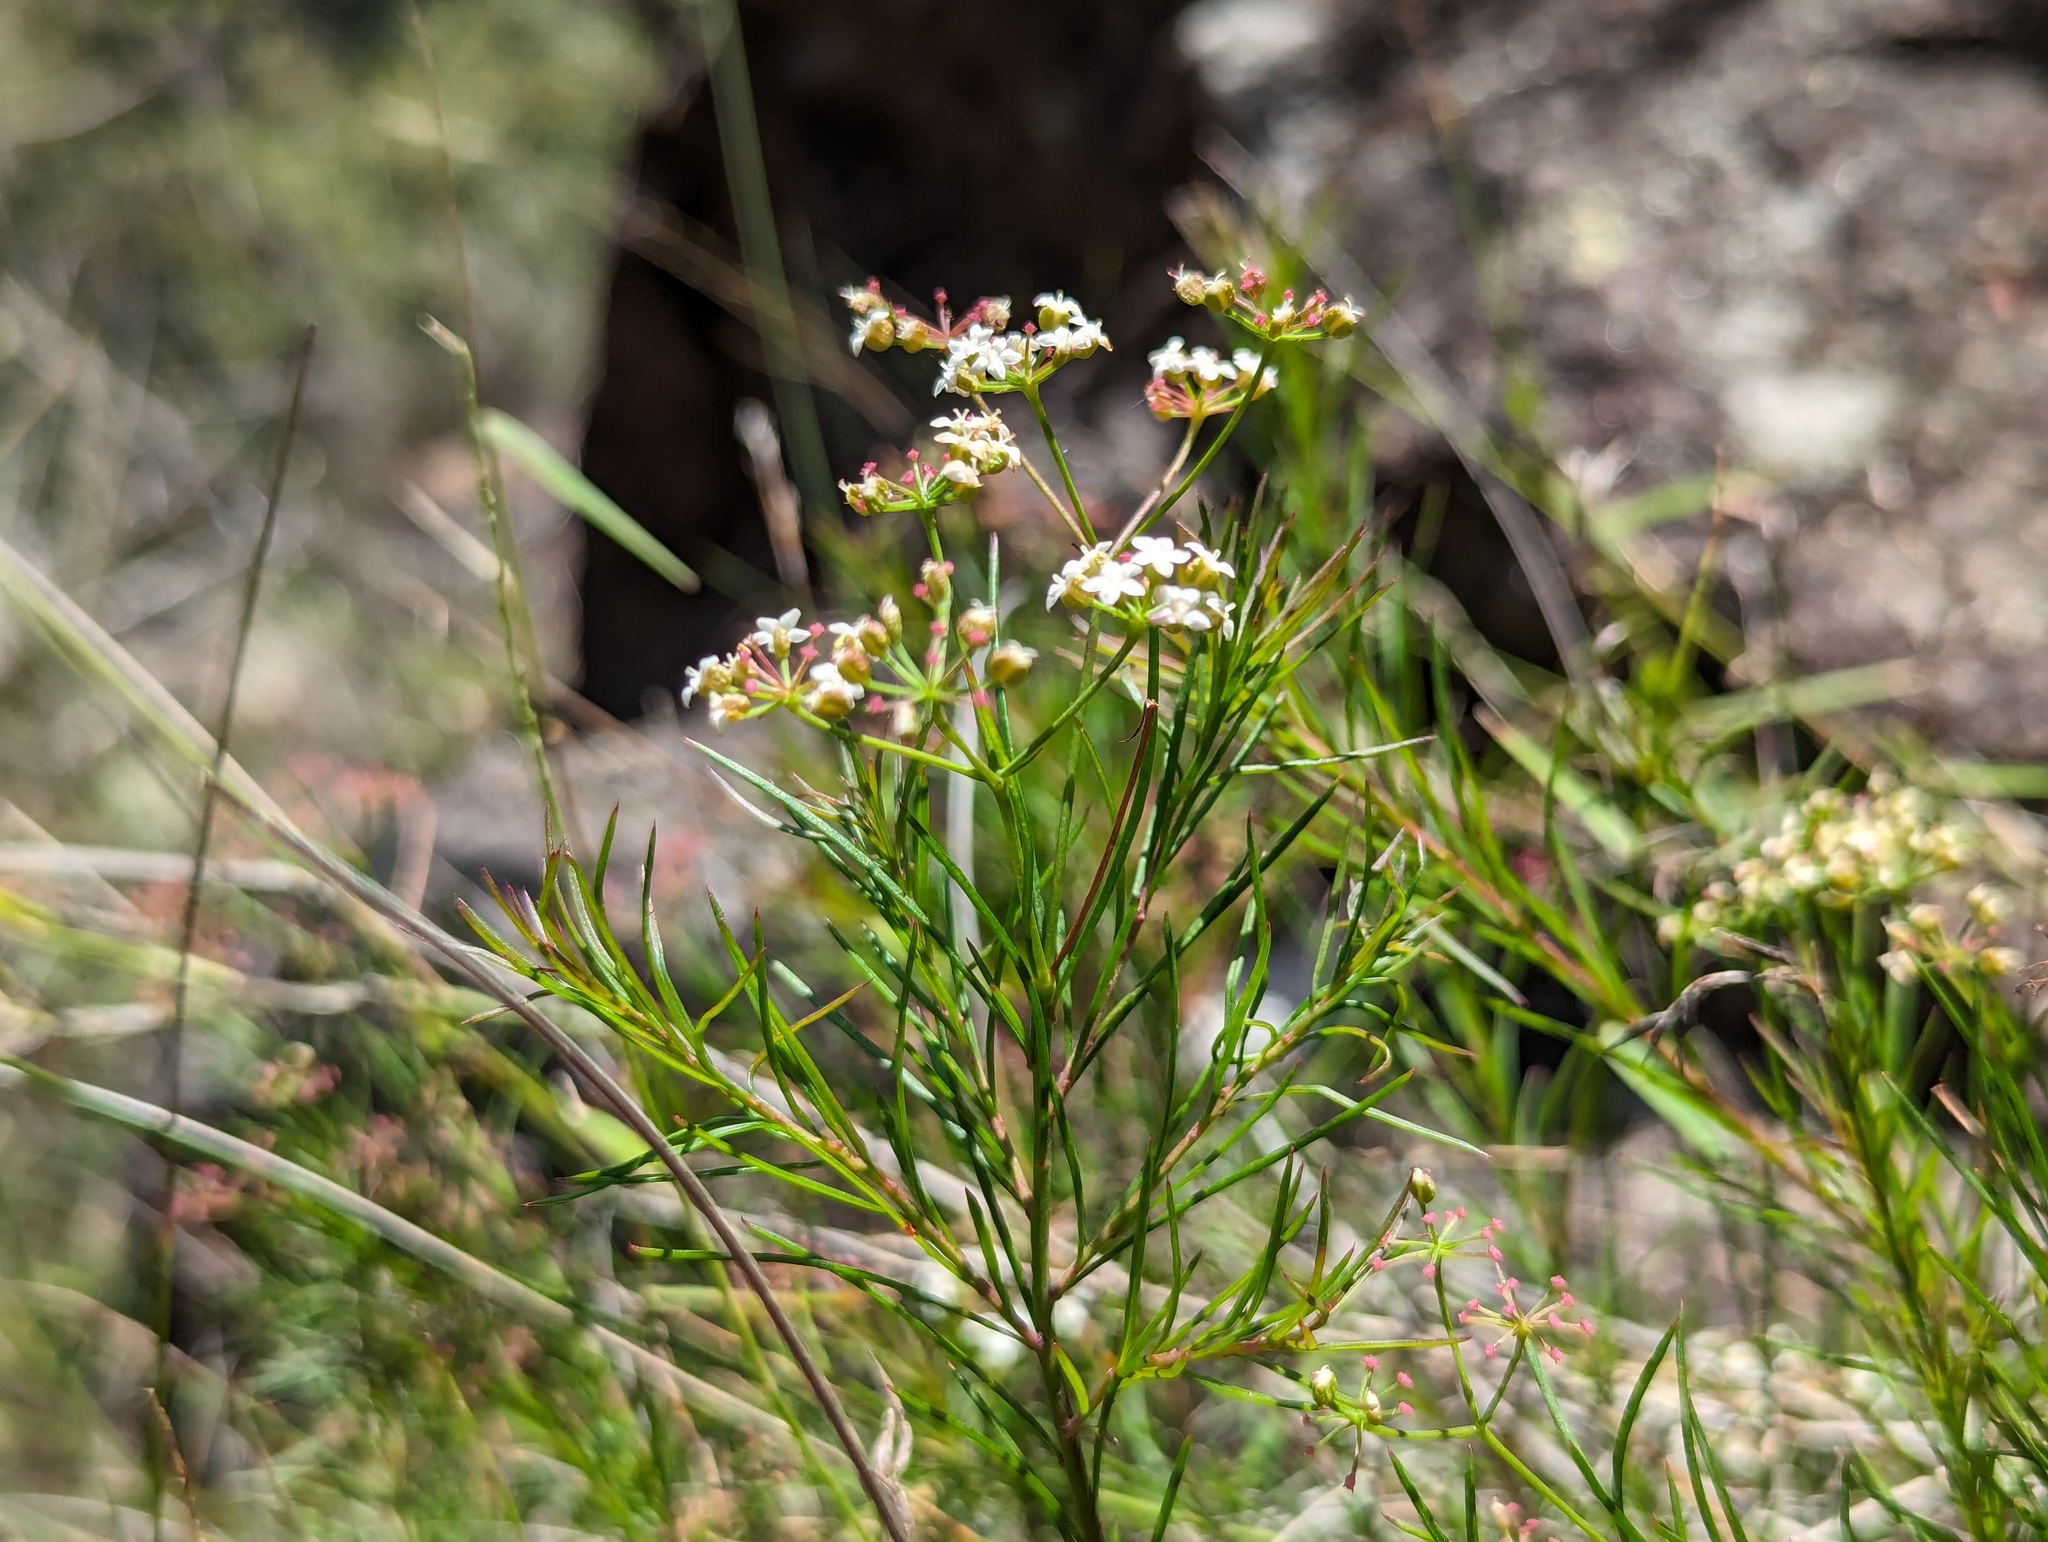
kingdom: Plantae
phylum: Tracheophyta
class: Magnoliopsida
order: Apiales
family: Apiaceae
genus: Platysace
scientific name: Platysace linearifolia
